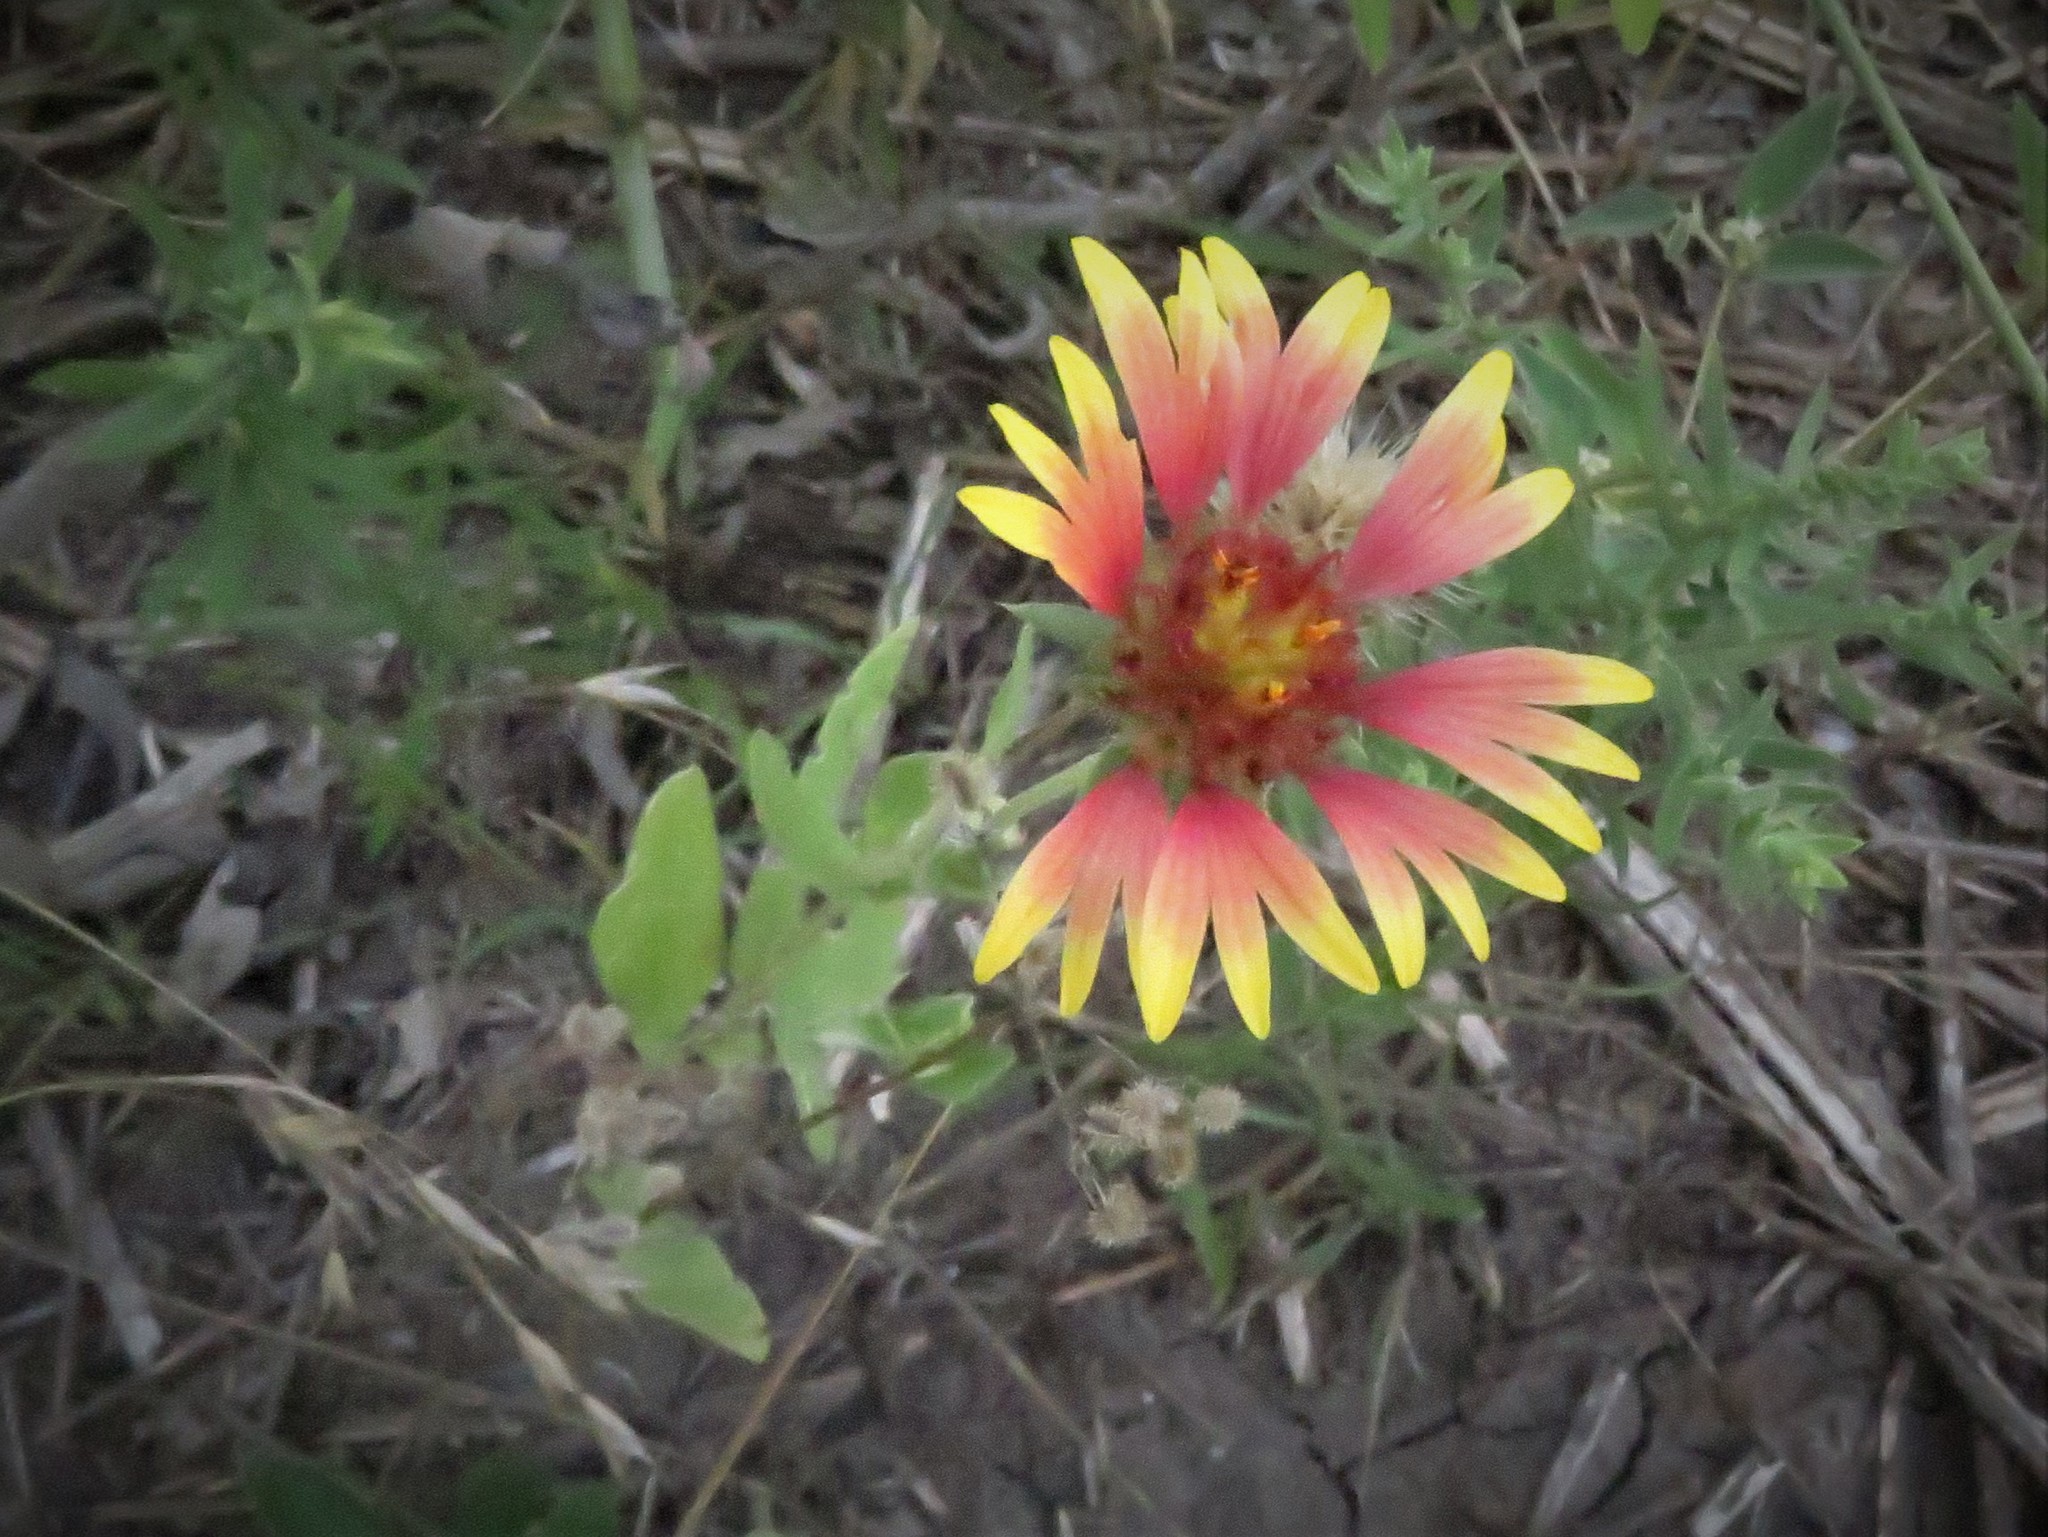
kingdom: Plantae
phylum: Tracheophyta
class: Magnoliopsida
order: Asterales
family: Asteraceae
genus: Gaillardia
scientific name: Gaillardia pulchella
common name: Firewheel
